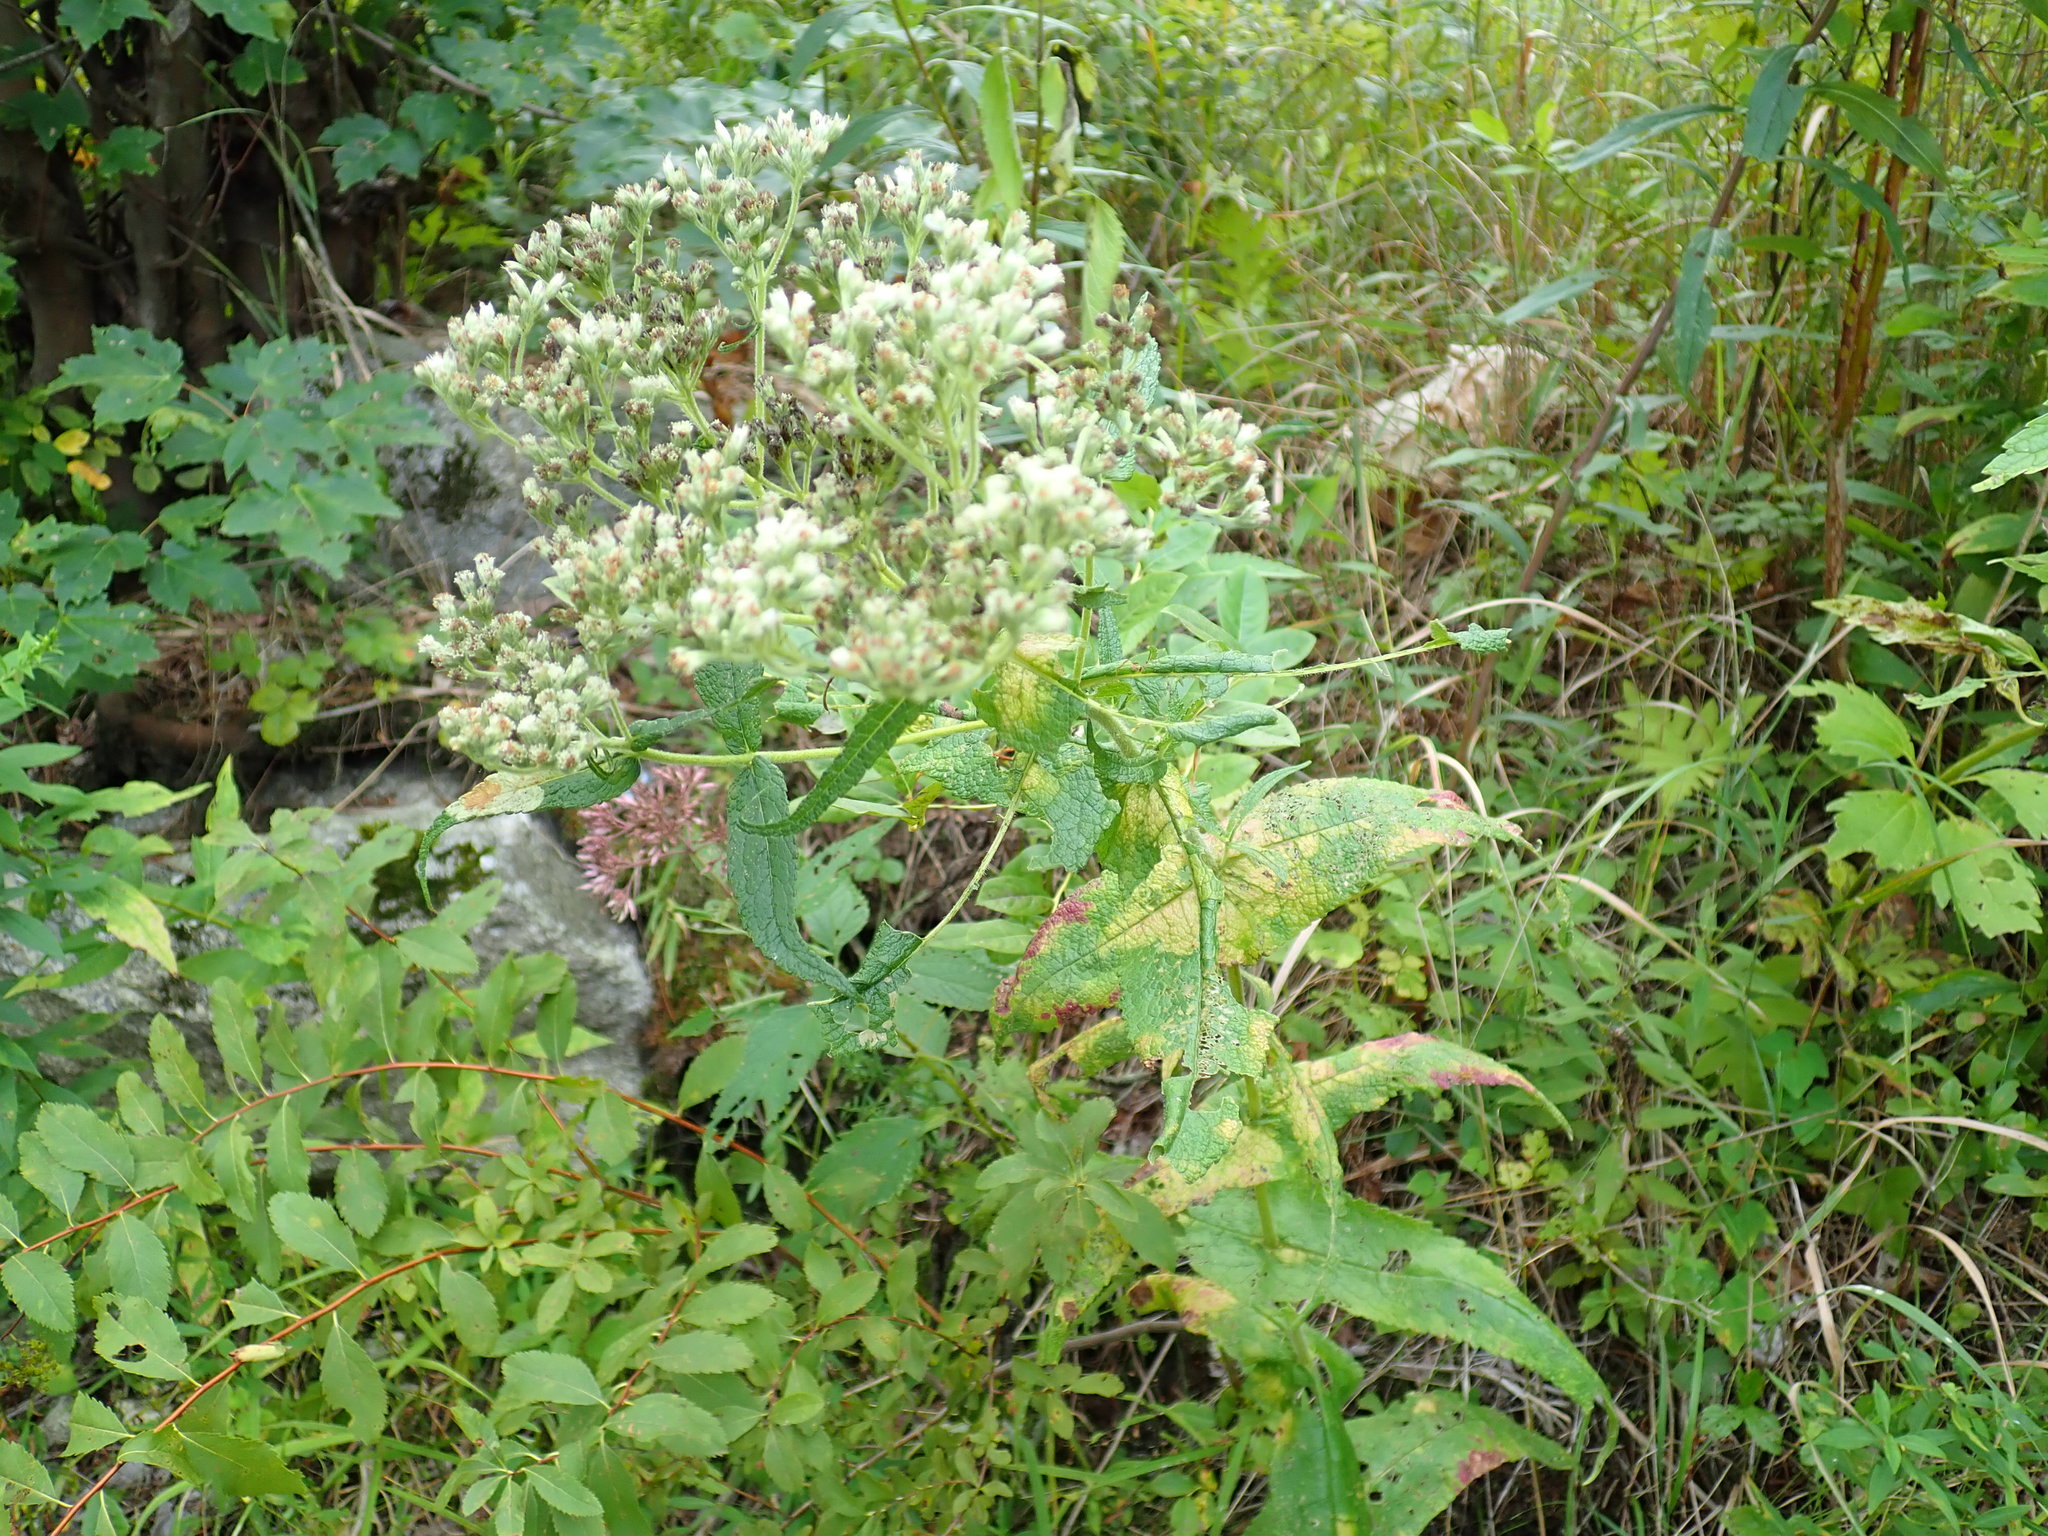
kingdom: Plantae
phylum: Tracheophyta
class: Magnoliopsida
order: Asterales
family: Asteraceae
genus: Eupatorium
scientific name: Eupatorium perfoliatum
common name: Boneset
